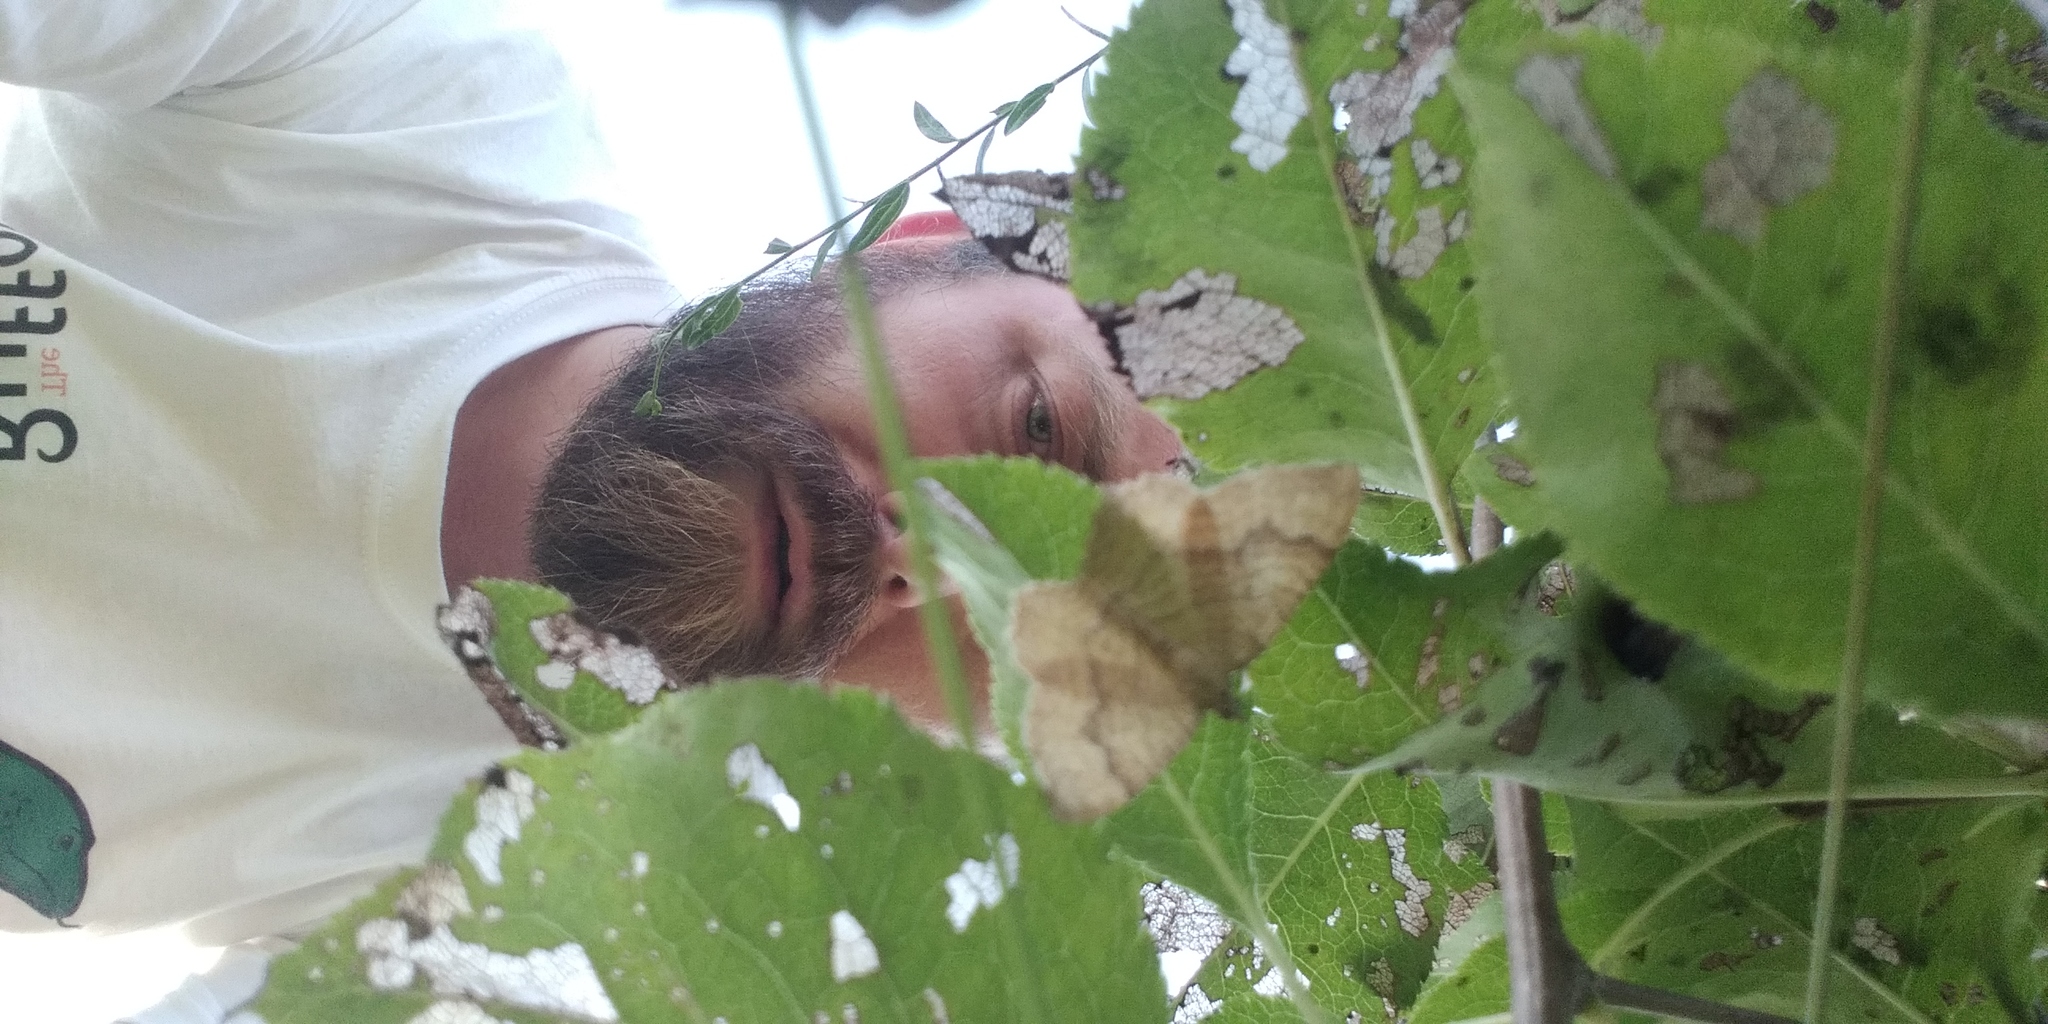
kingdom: Animalia
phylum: Arthropoda
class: Insecta
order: Lepidoptera
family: Geometridae
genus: Camptogramma
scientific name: Camptogramma bilineata
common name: Yellow shell
